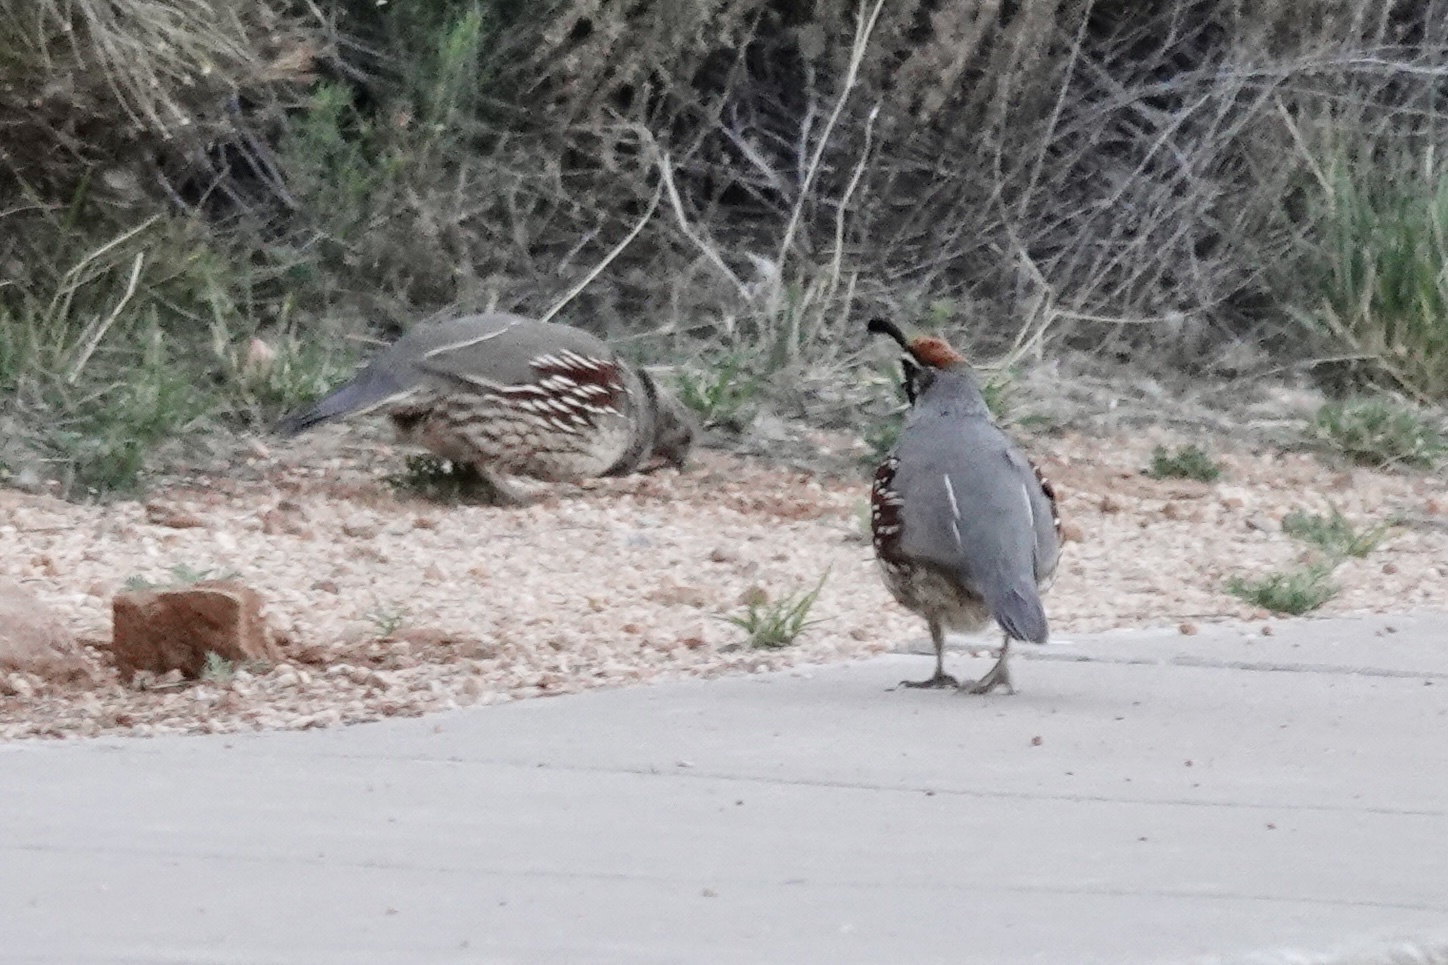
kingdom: Animalia
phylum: Chordata
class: Aves
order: Galliformes
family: Odontophoridae
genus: Callipepla
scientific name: Callipepla gambelii
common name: Gambel's quail
